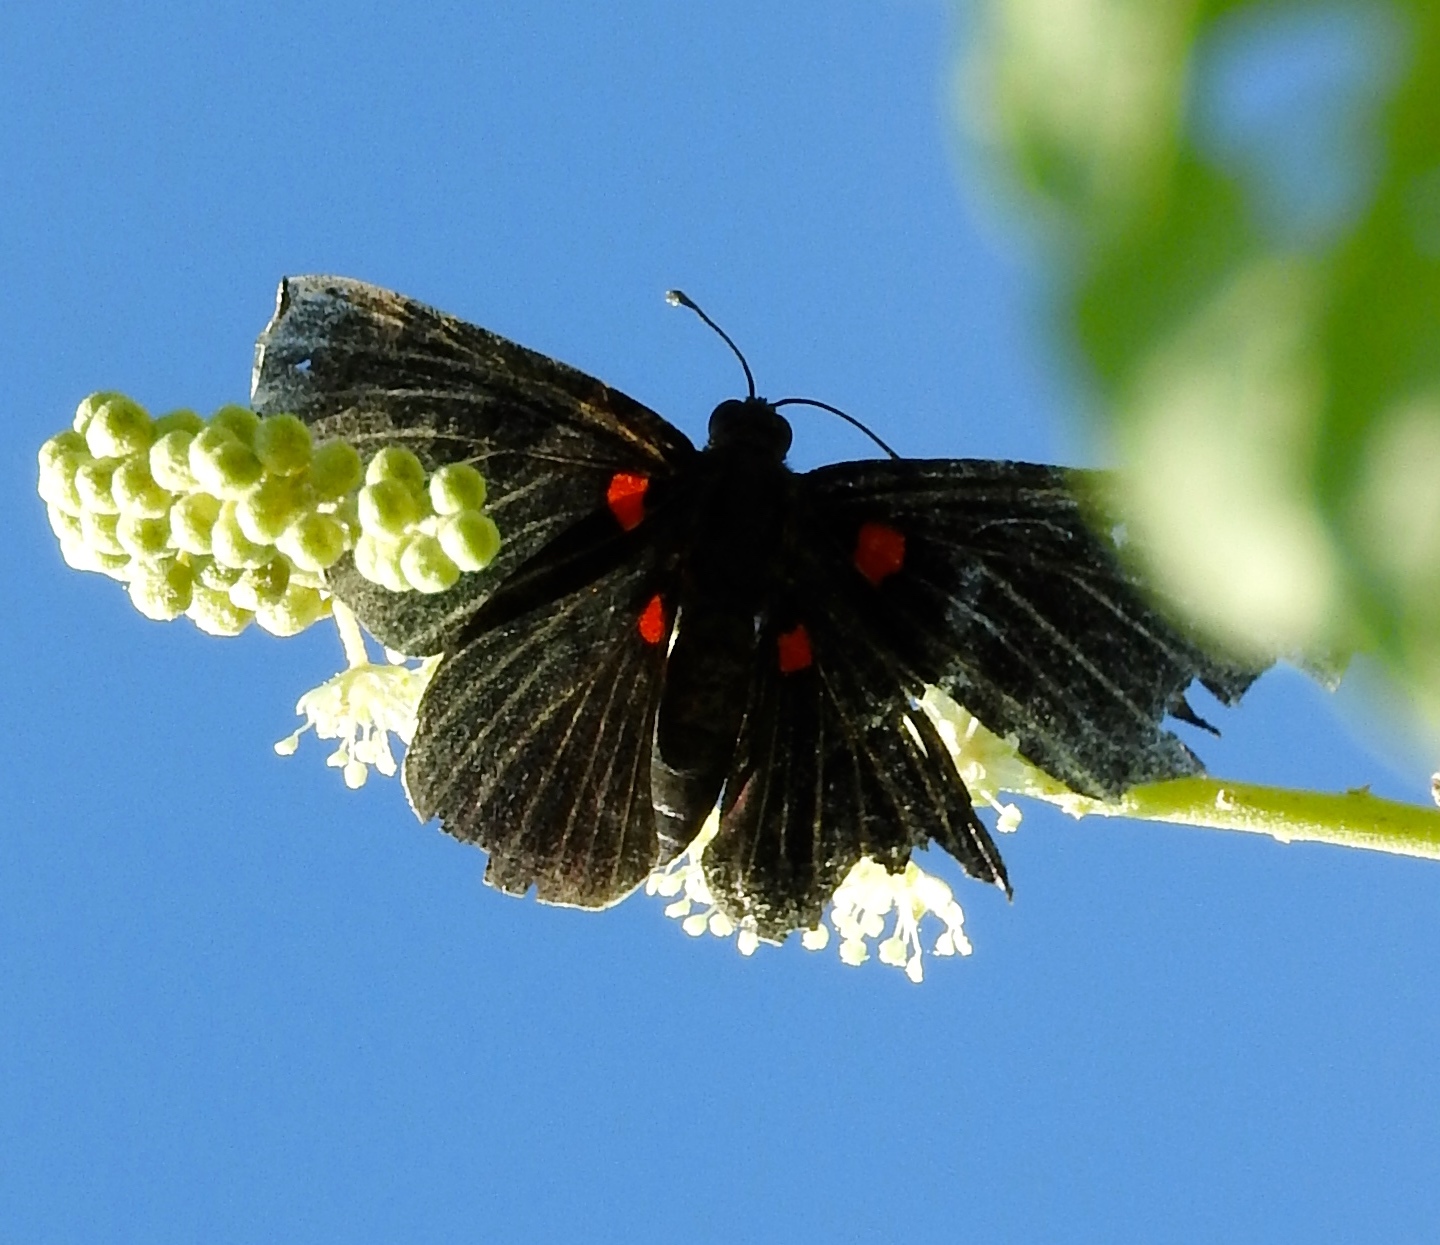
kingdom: Animalia
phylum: Arthropoda
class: Insecta
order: Lepidoptera
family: Lycaenidae
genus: Melanis
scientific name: Melanis
